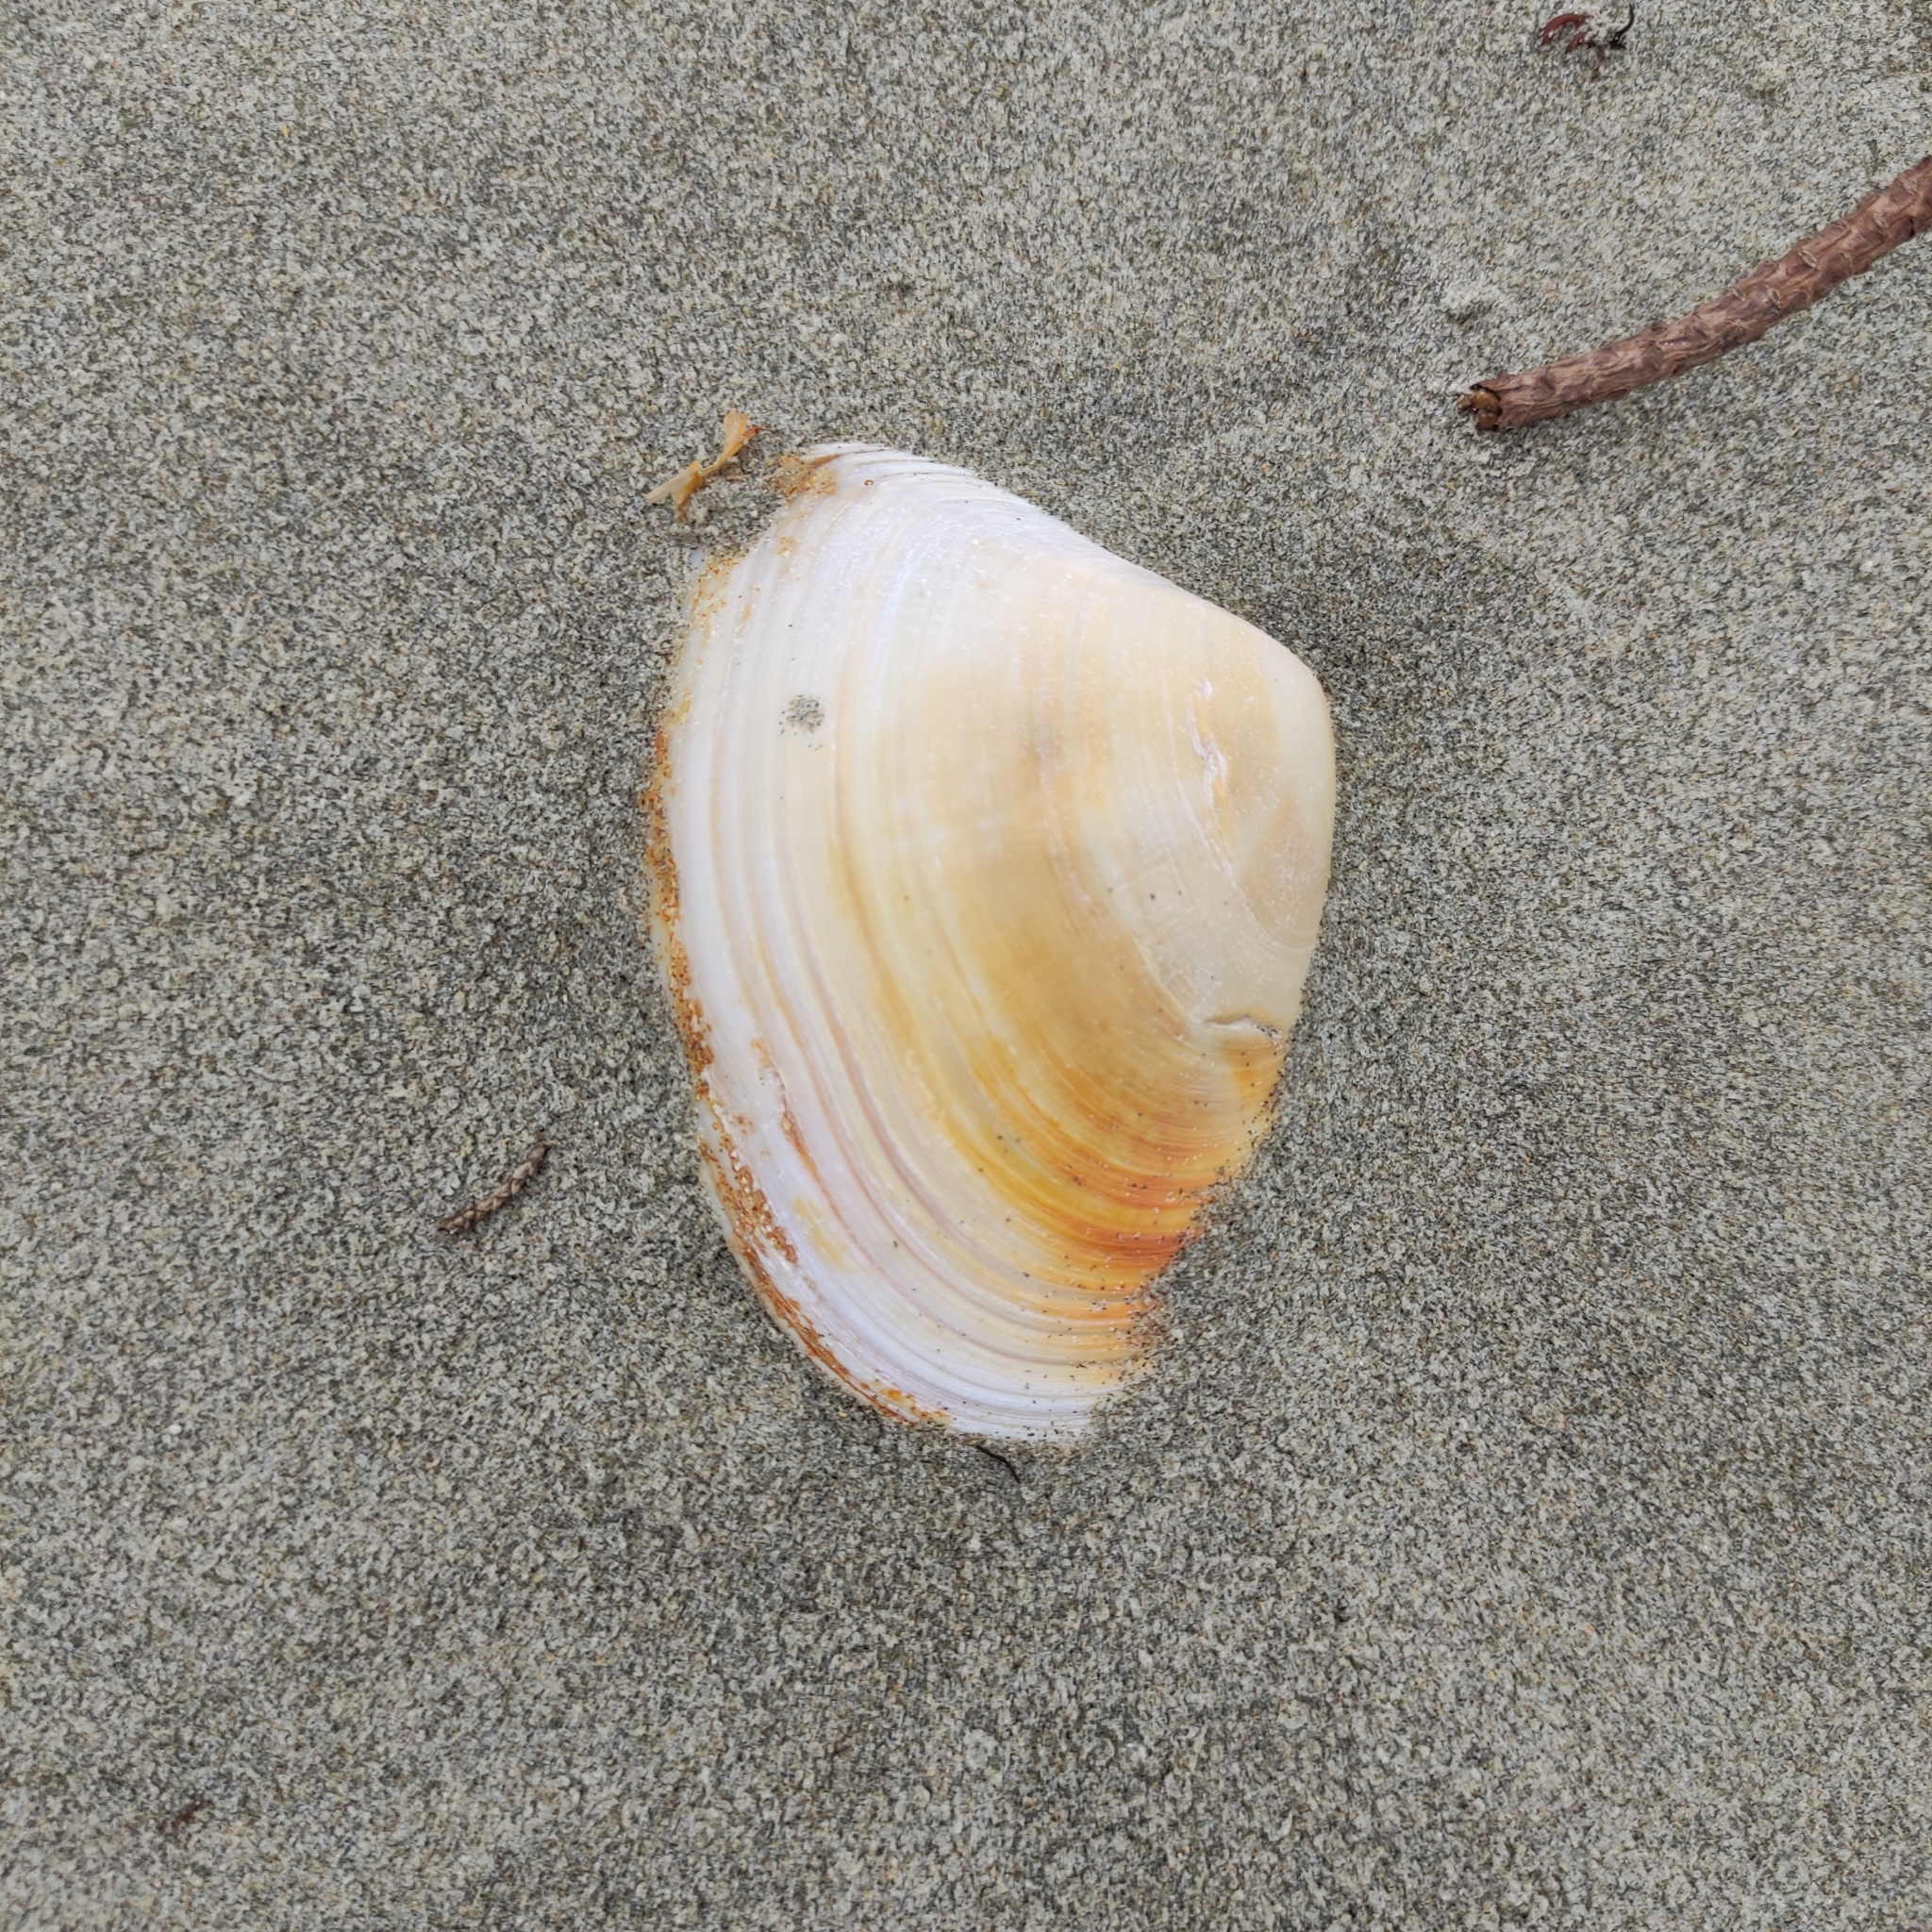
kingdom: Animalia
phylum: Mollusca
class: Bivalvia
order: Venerida
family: Mesodesmatidae
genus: Paphies
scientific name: Paphies donacina
